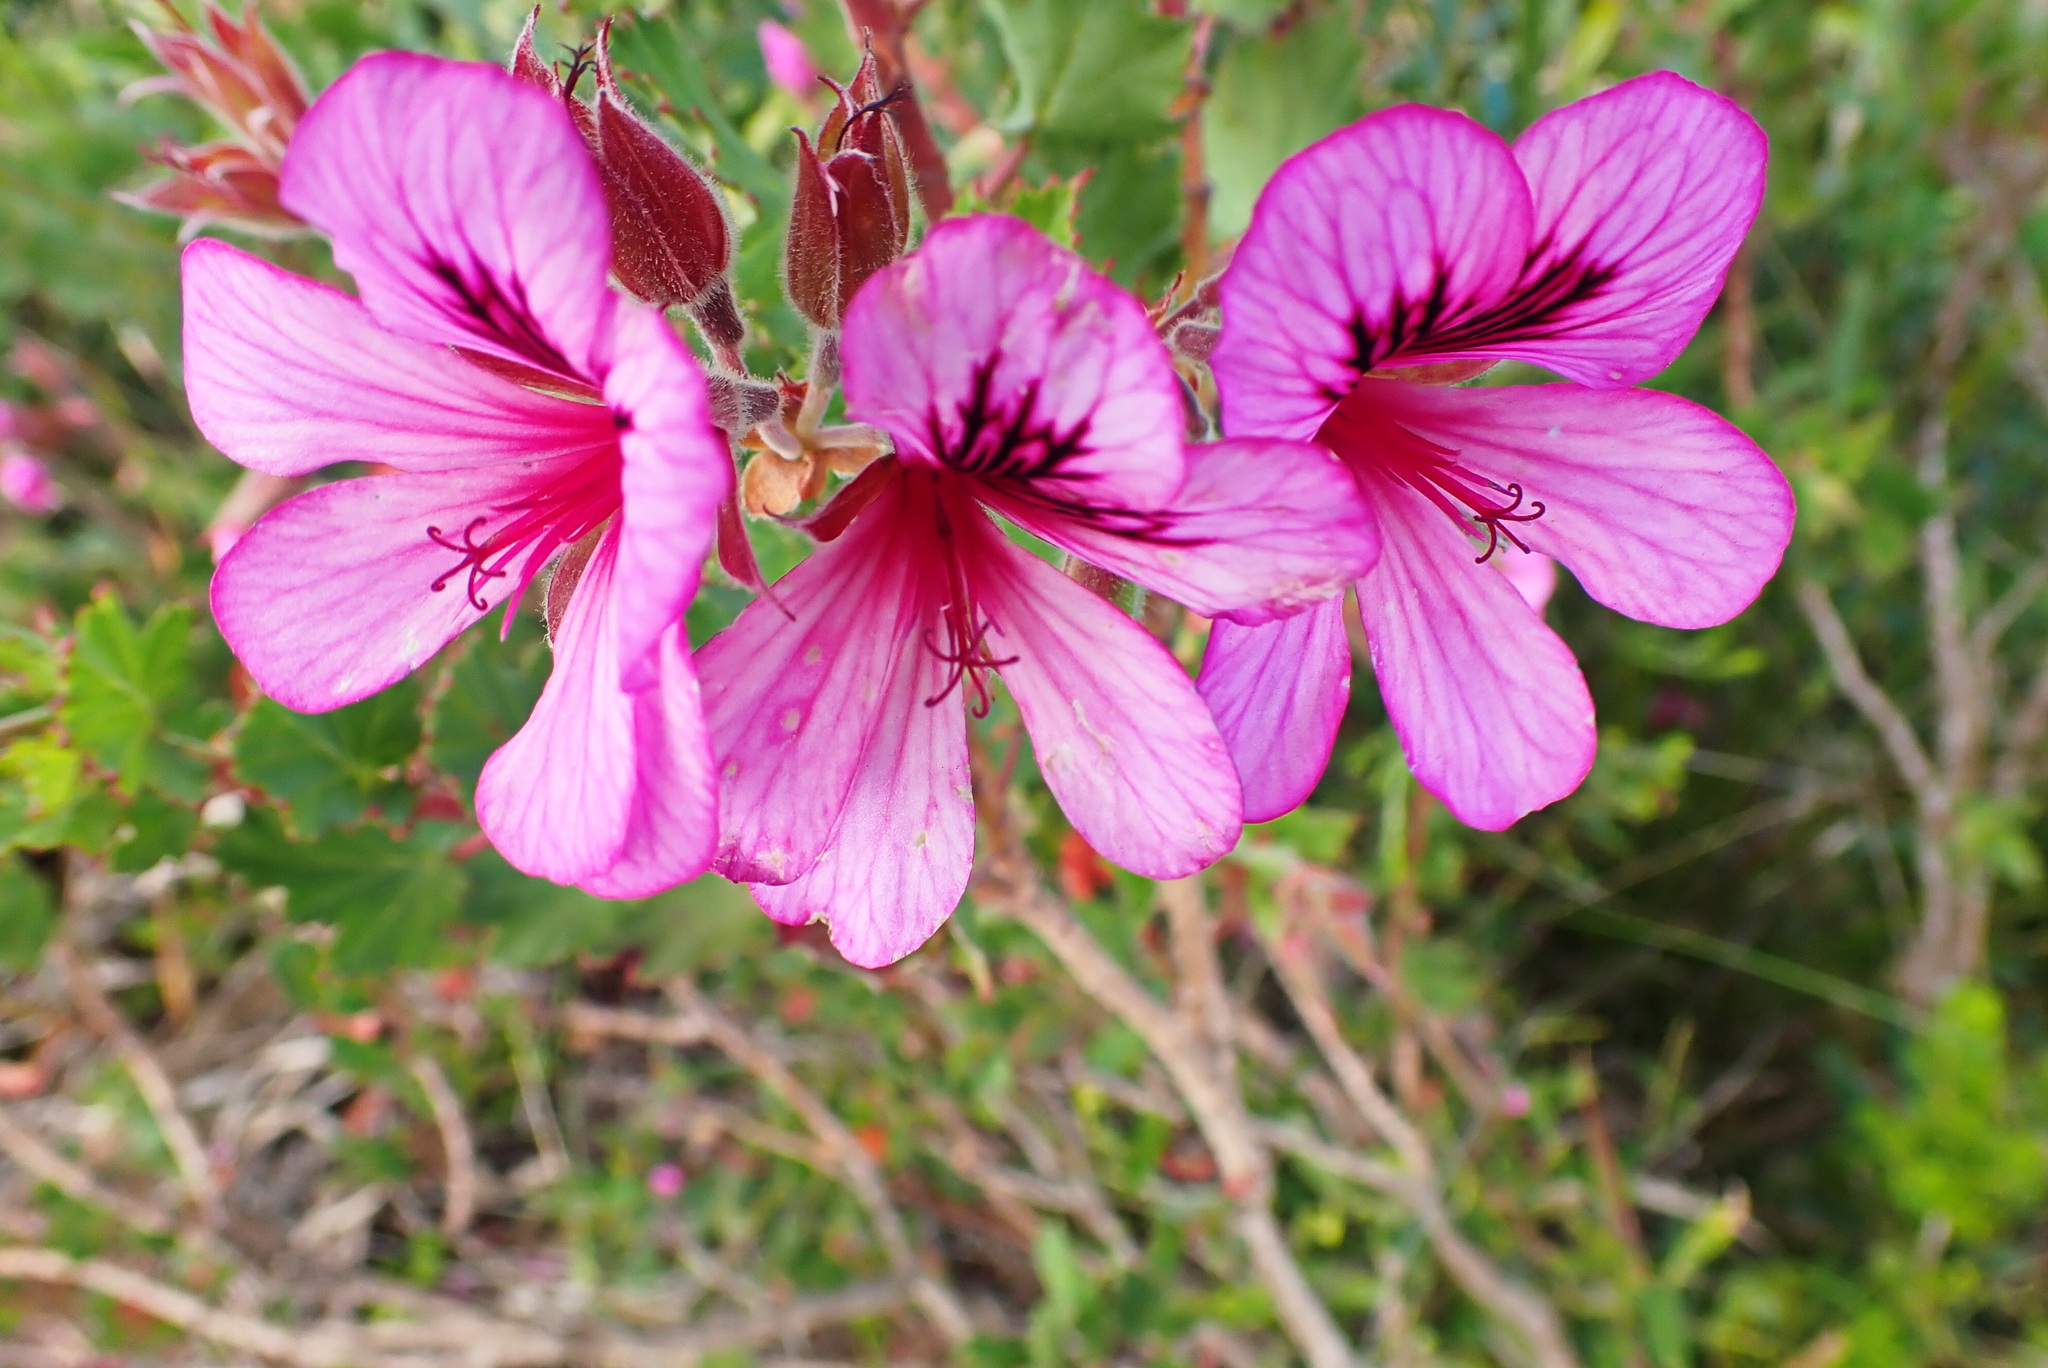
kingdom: Plantae
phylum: Tracheophyta
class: Magnoliopsida
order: Geraniales
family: Geraniaceae
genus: Pelargonium
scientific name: Pelargonium betulinum
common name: Birch-leaf pelargonium
